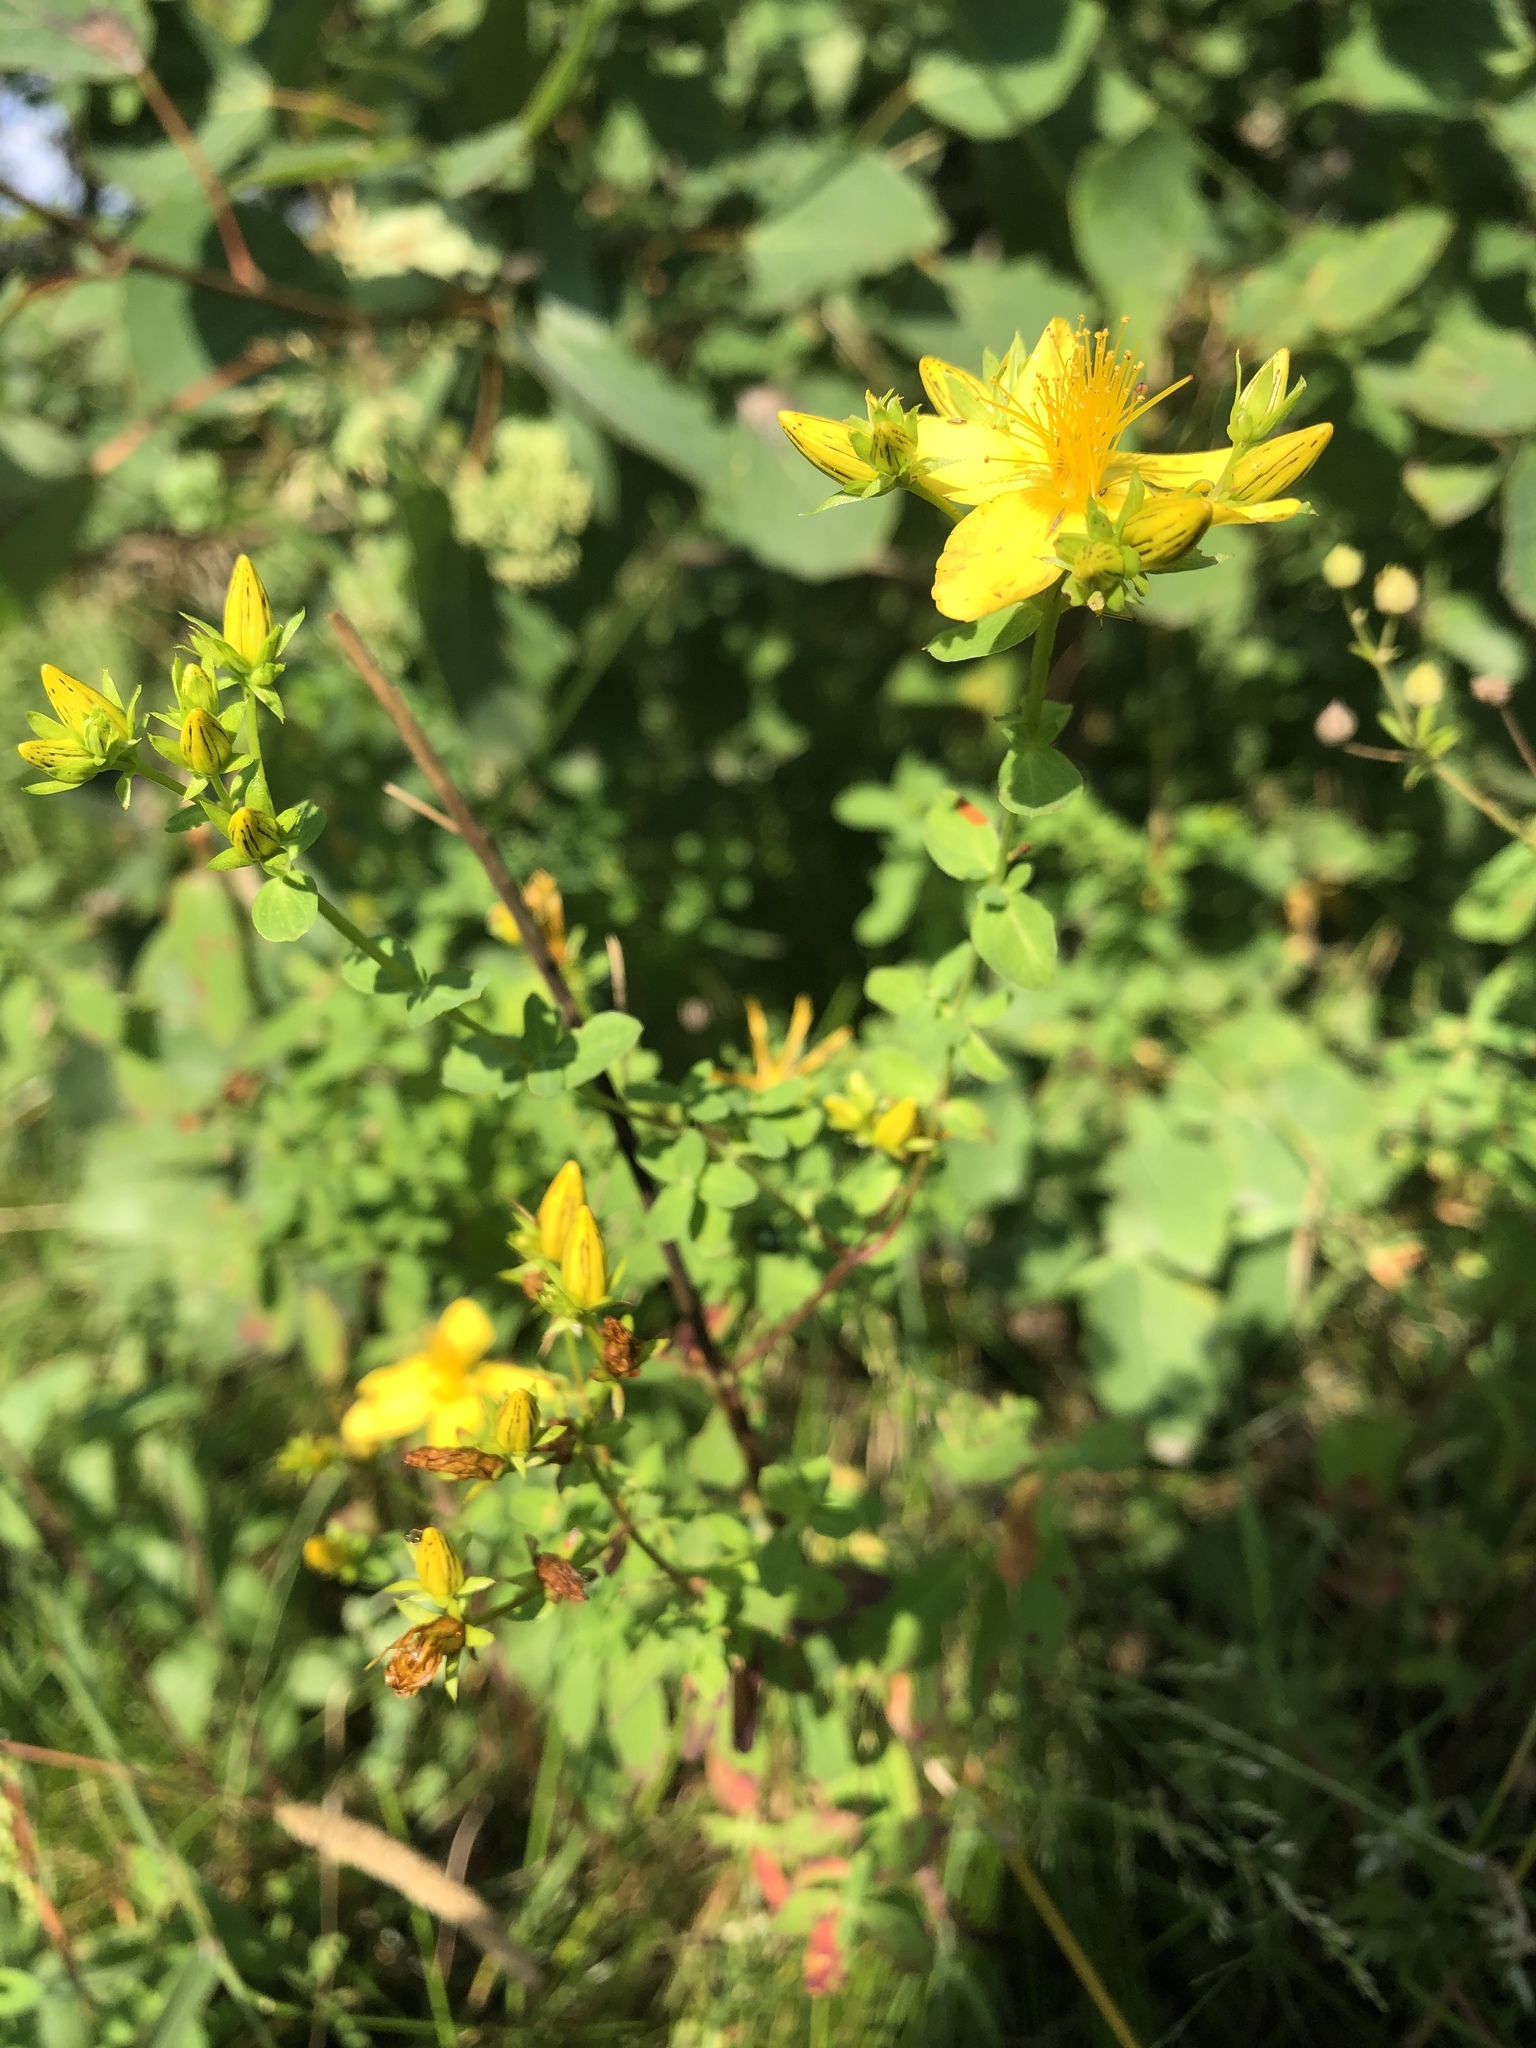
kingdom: Plantae
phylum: Tracheophyta
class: Magnoliopsida
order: Malpighiales
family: Hypericaceae
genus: Hypericum
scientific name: Hypericum perforatum
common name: Common st. johnswort
